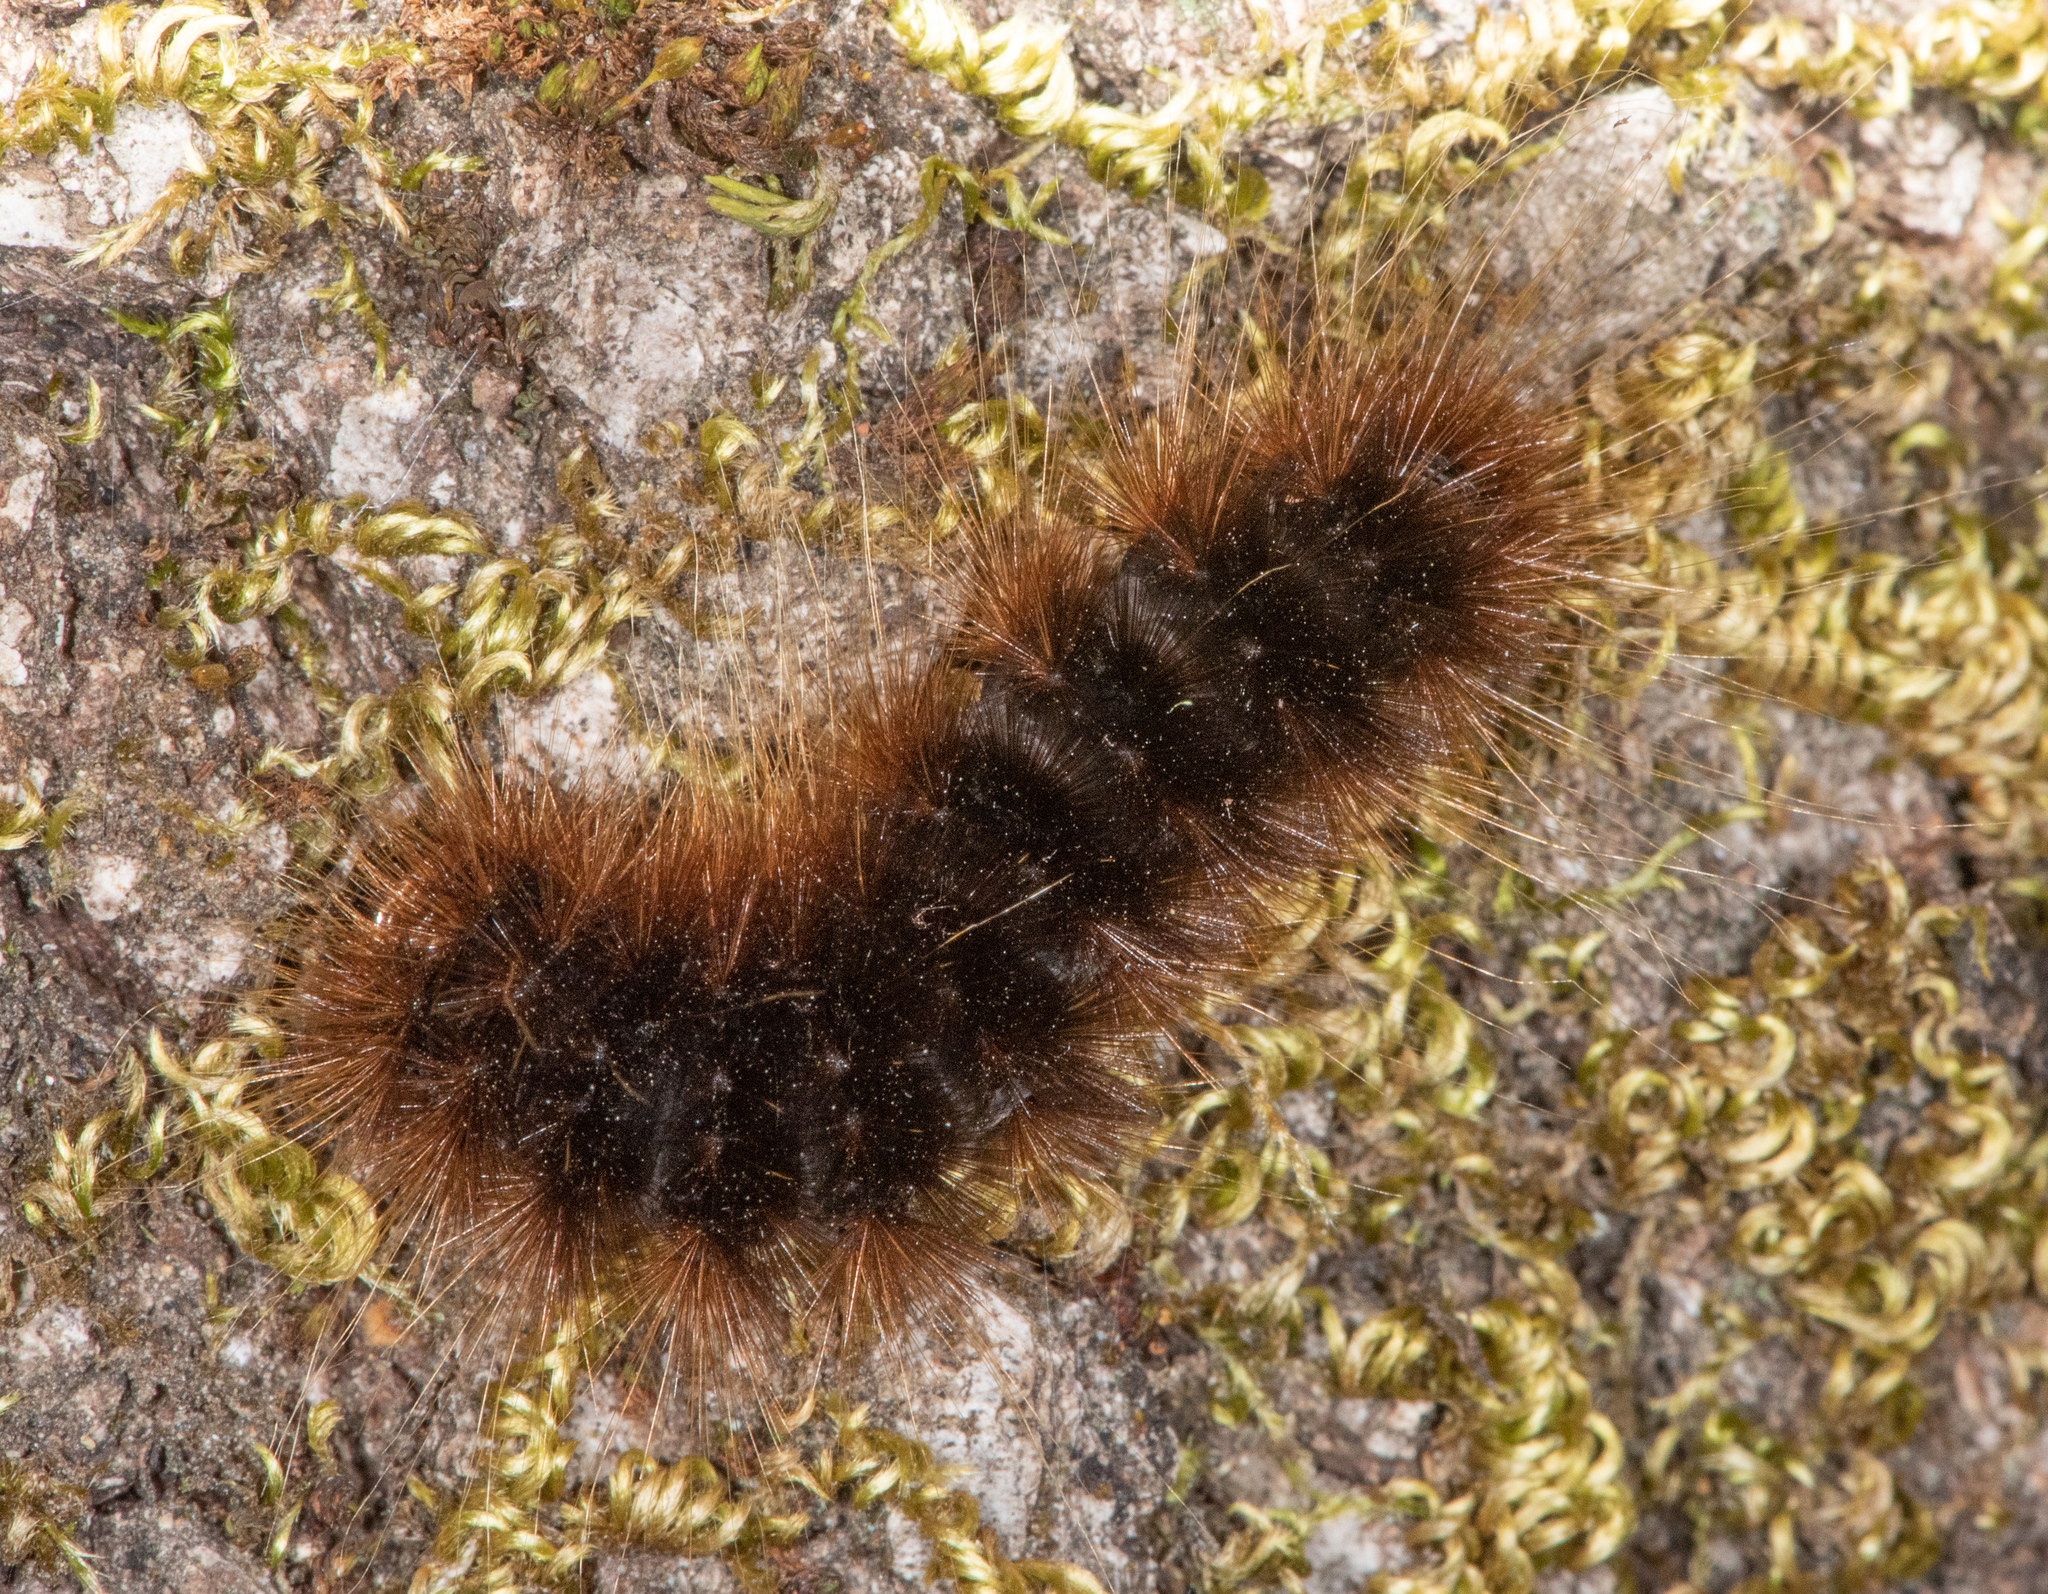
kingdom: Animalia
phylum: Arthropoda
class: Insecta
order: Lepidoptera
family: Erebidae
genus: Hemihyalea
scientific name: Hemihyalea edwardsii
